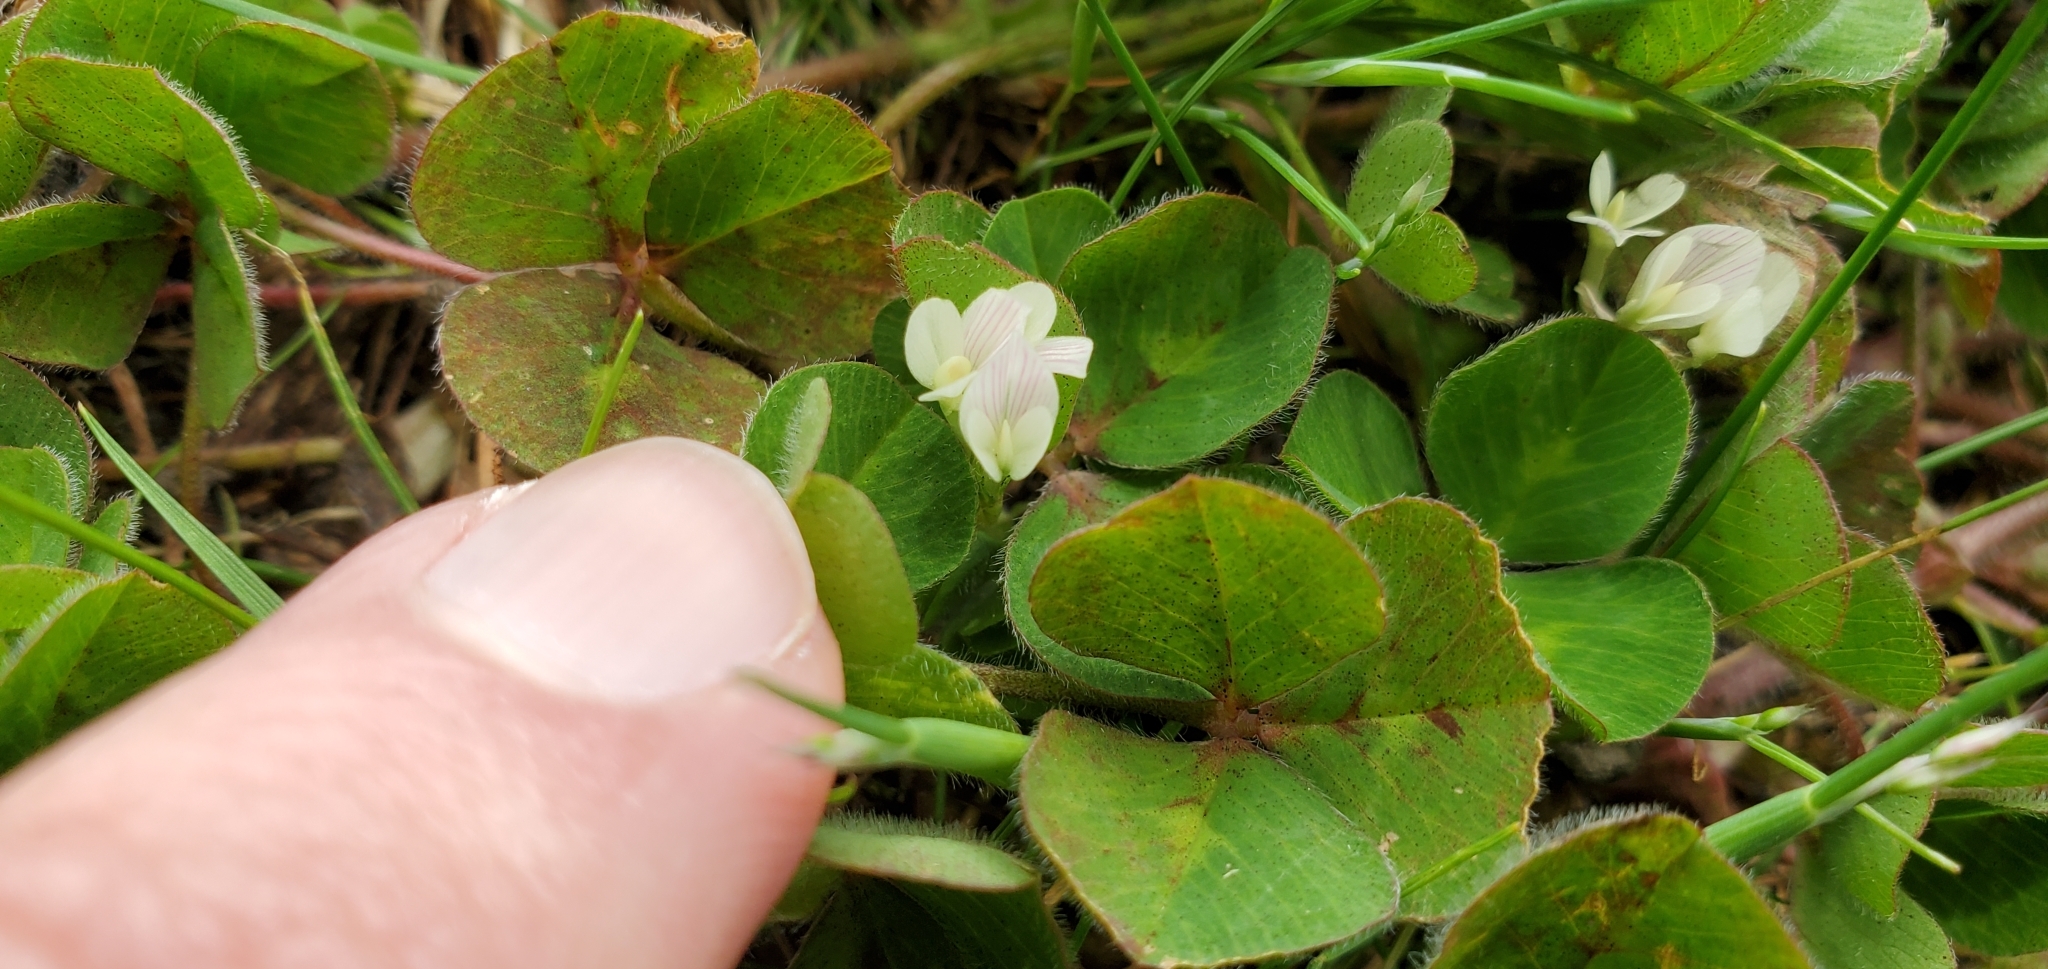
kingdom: Plantae
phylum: Tracheophyta
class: Magnoliopsida
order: Fabales
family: Fabaceae
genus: Trifolium
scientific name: Trifolium subterraneum
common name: Subterranean clover
